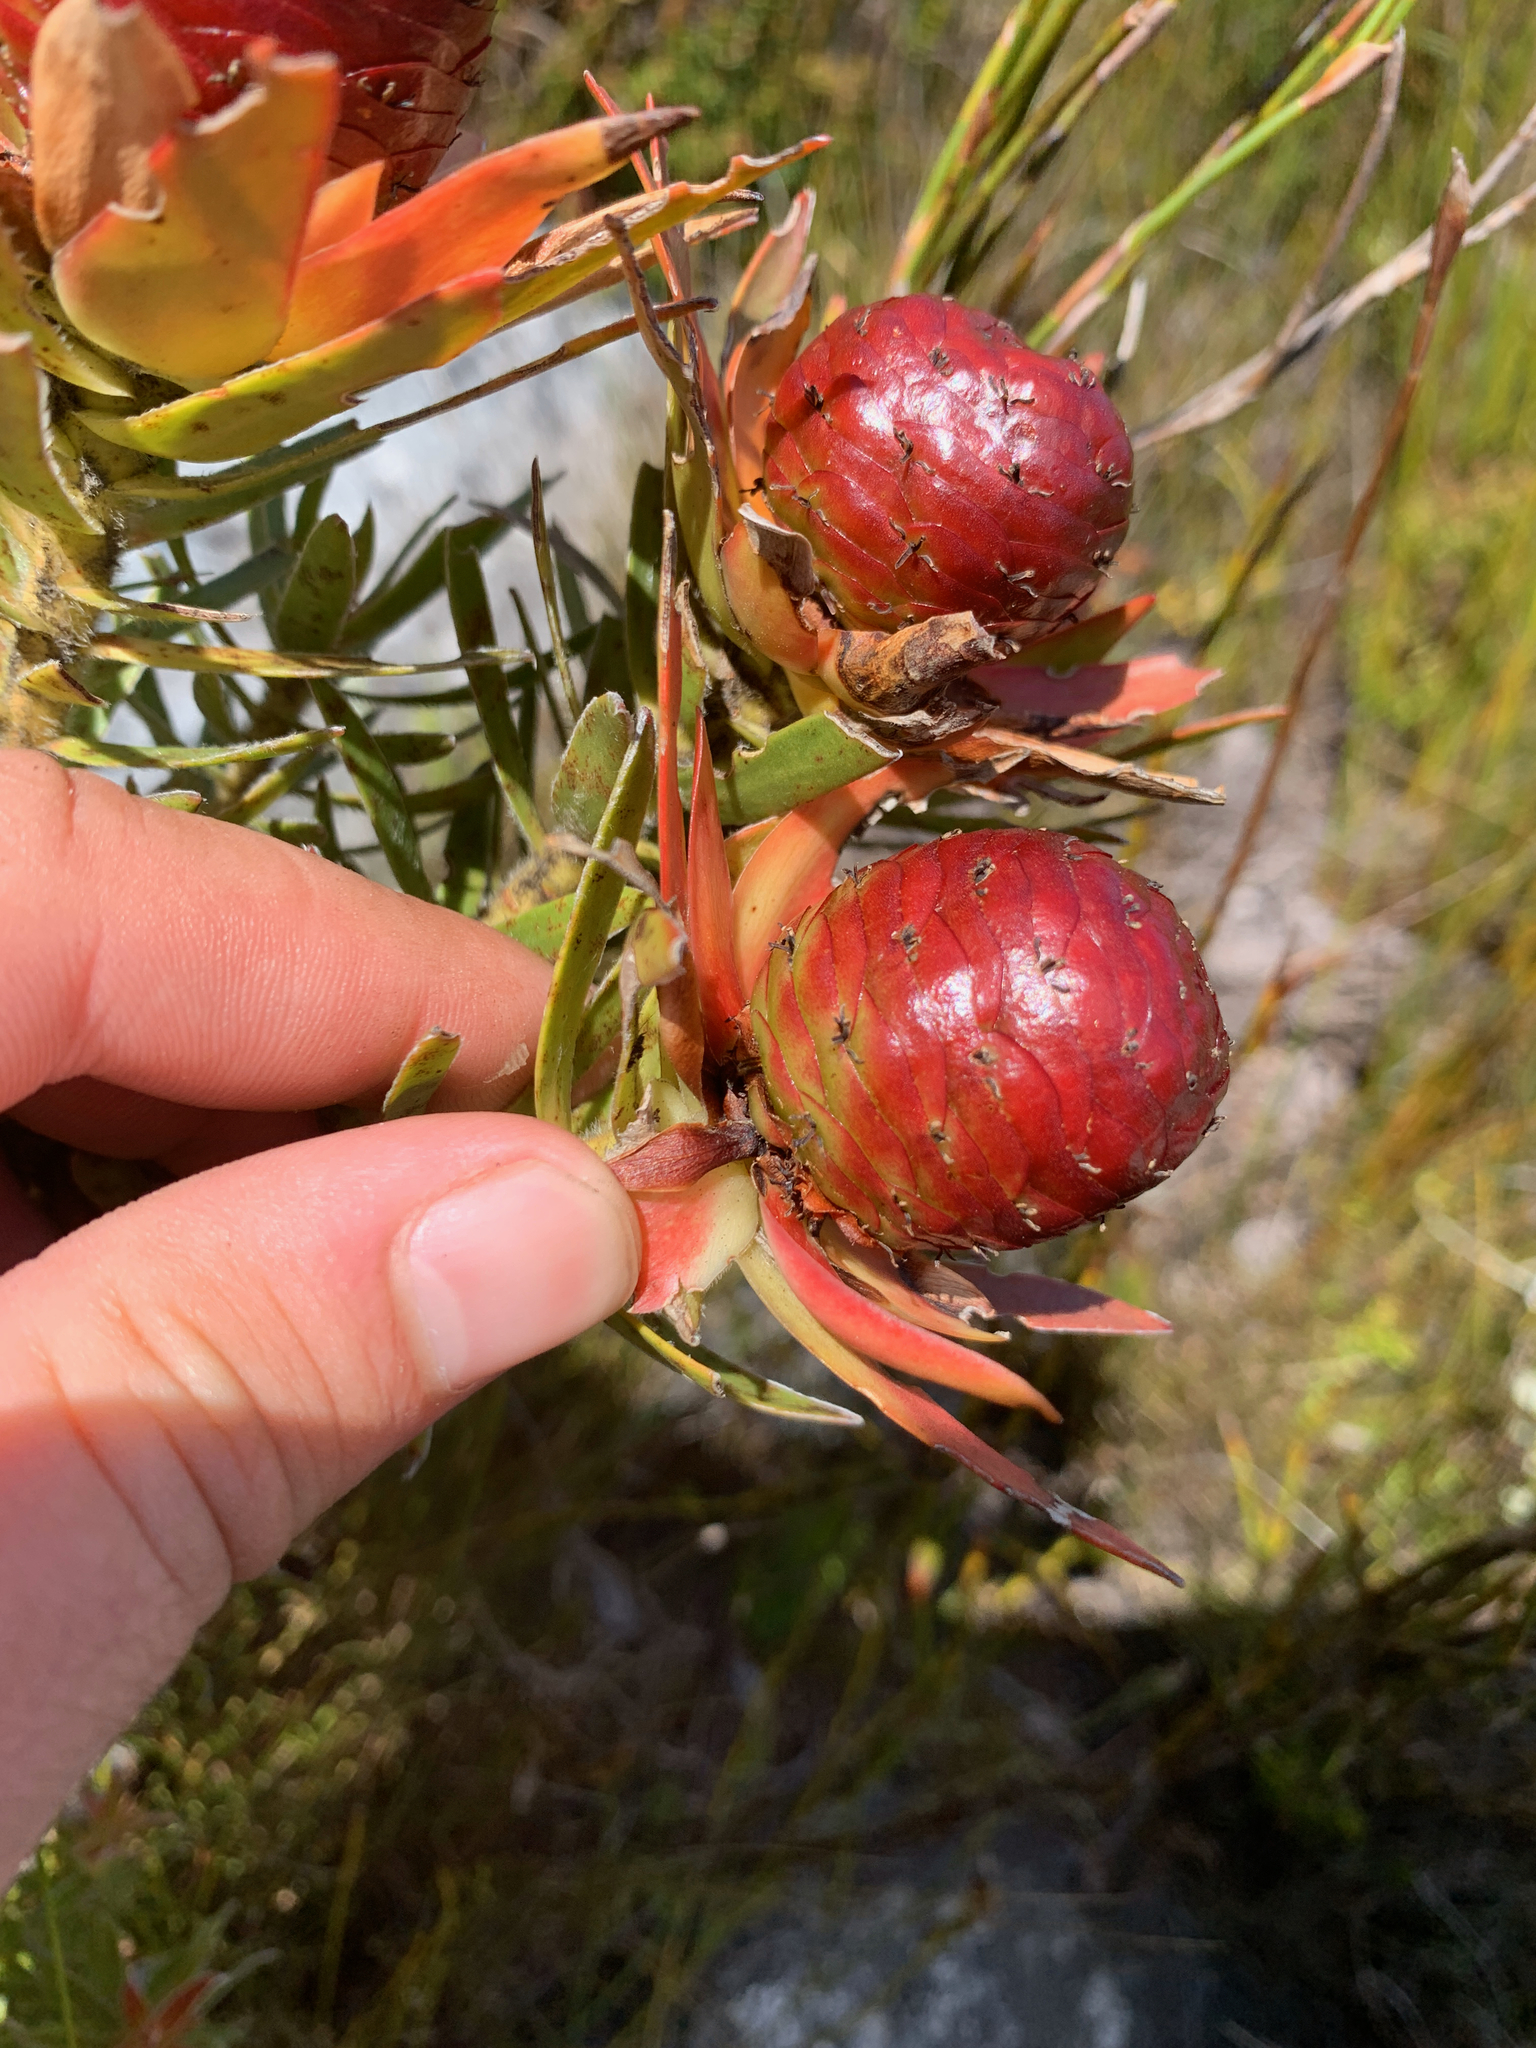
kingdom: Plantae
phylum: Tracheophyta
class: Magnoliopsida
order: Proteales
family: Proteaceae
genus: Leucadendron
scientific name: Leucadendron spissifolium
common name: Spear-leaf conebush
